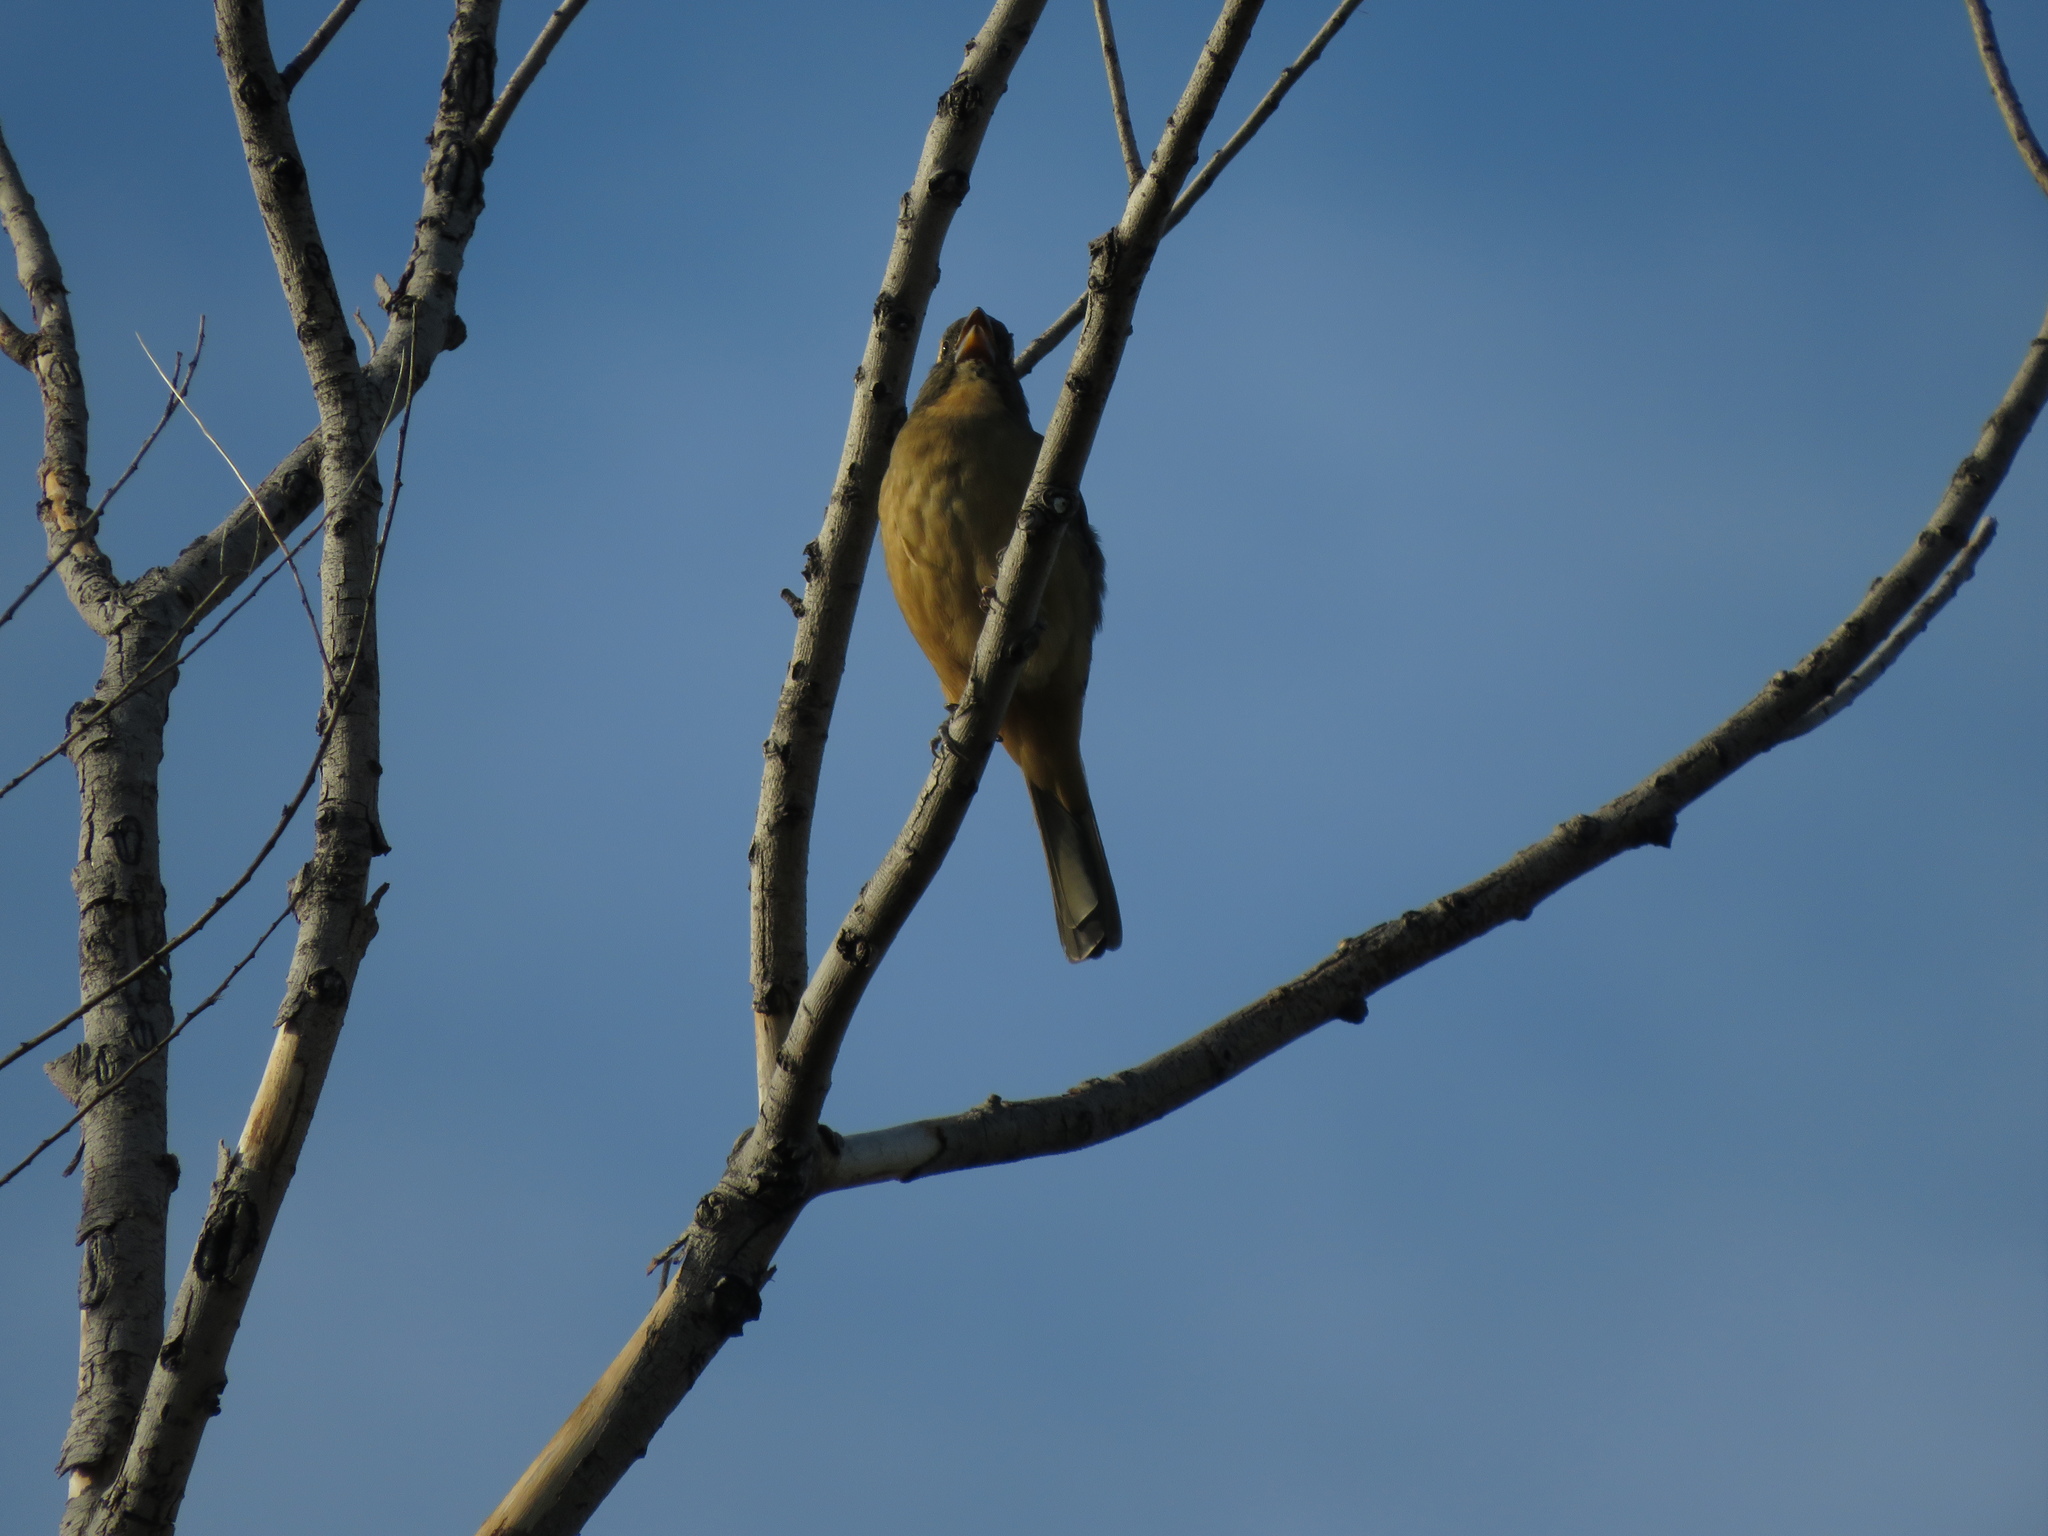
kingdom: Animalia
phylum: Chordata
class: Aves
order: Passeriformes
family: Thraupidae
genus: Saltator
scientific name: Saltator aurantiirostris
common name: Golden-billed saltator
